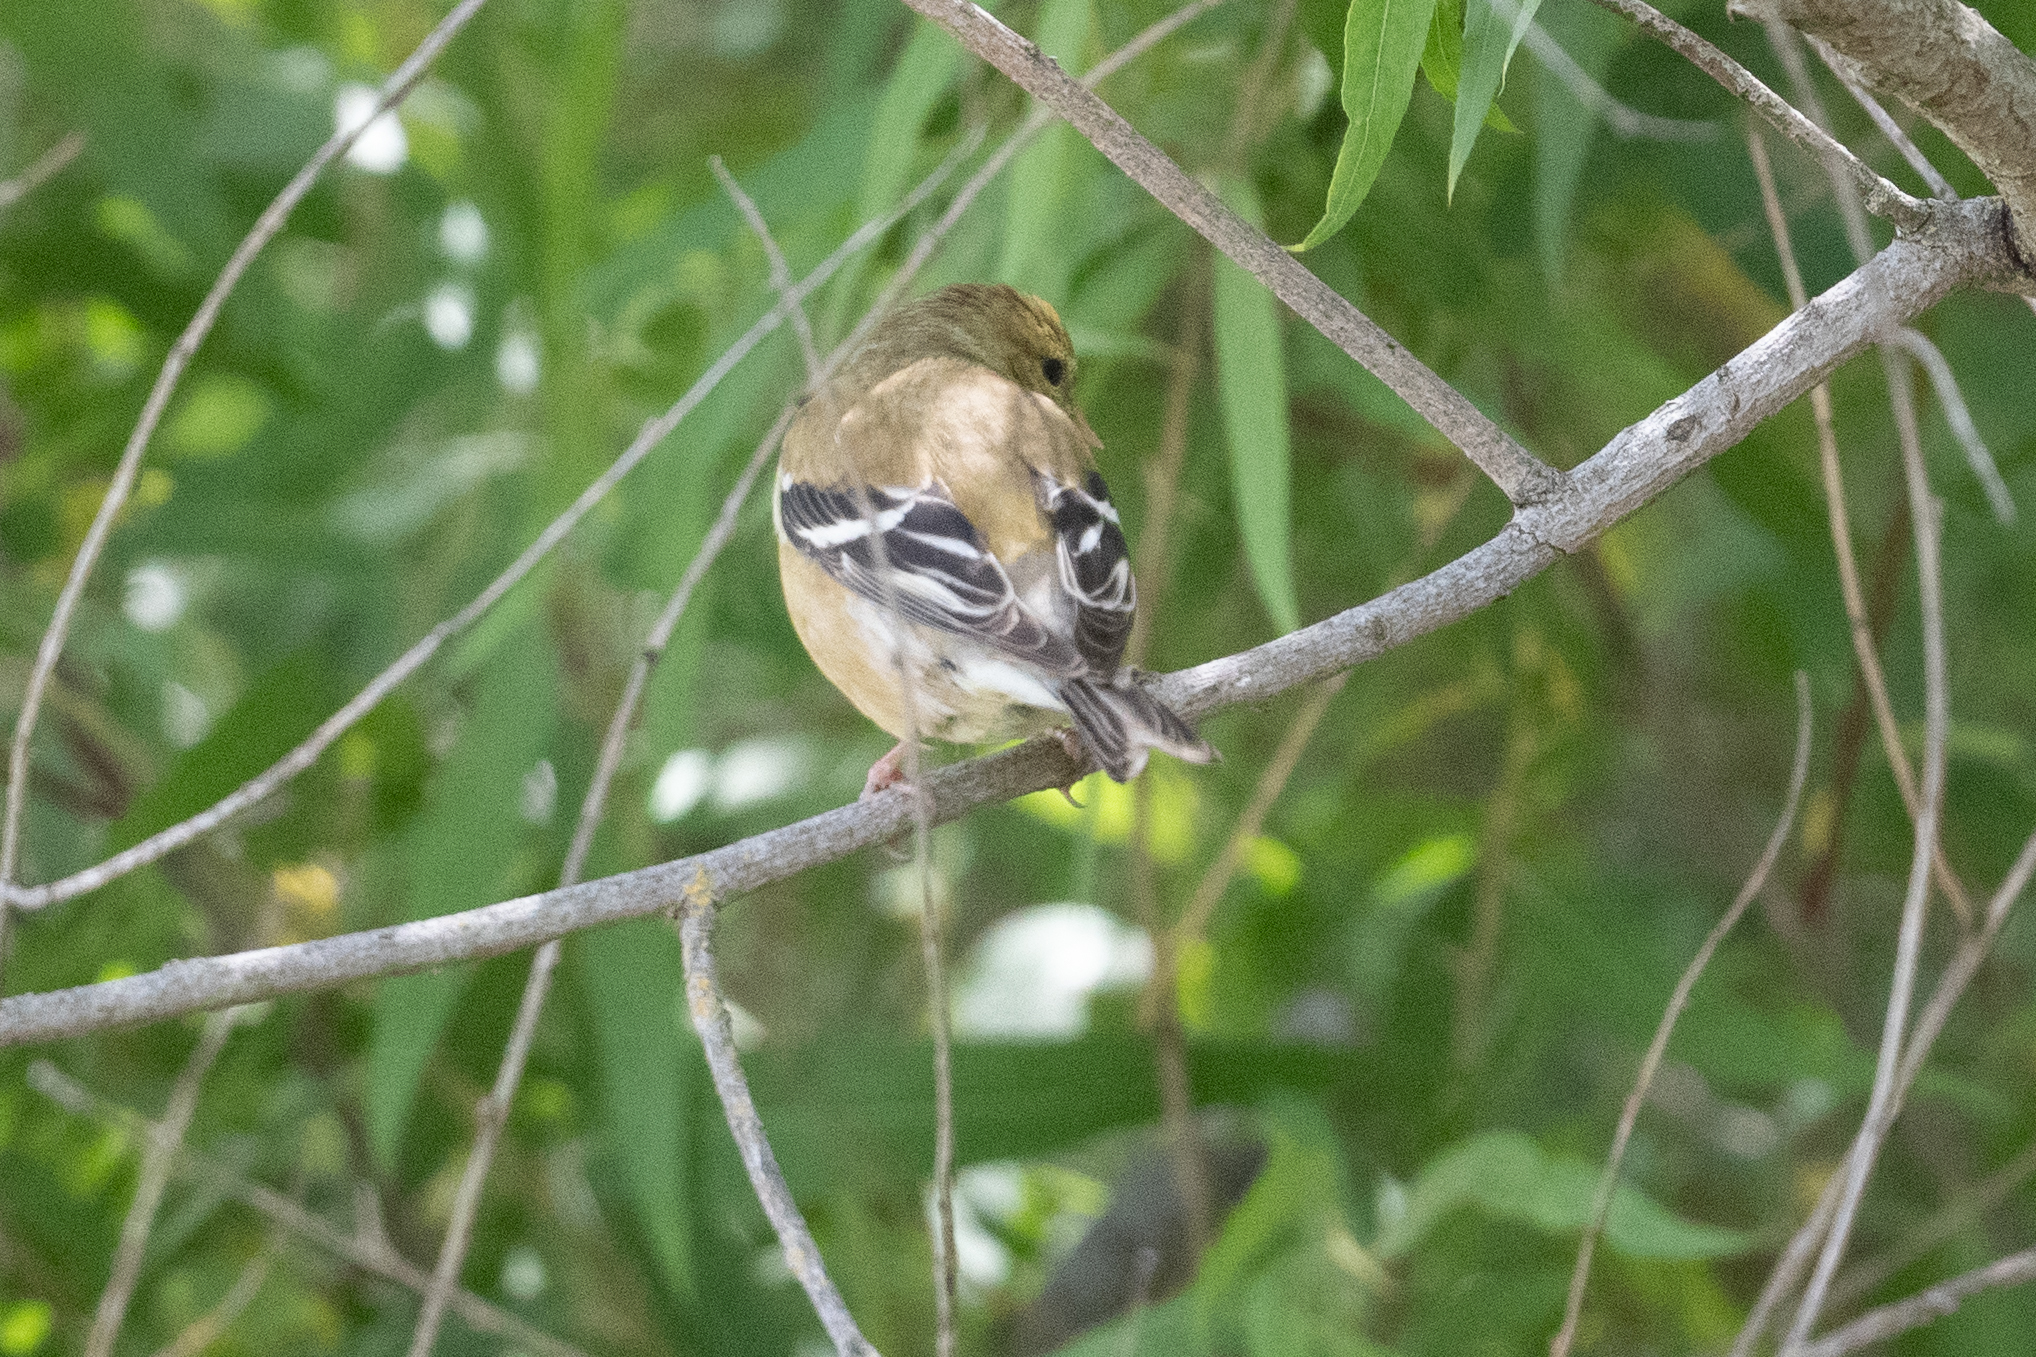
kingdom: Animalia
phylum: Chordata
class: Aves
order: Passeriformes
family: Fringillidae
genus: Spinus
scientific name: Spinus tristis
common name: American goldfinch
